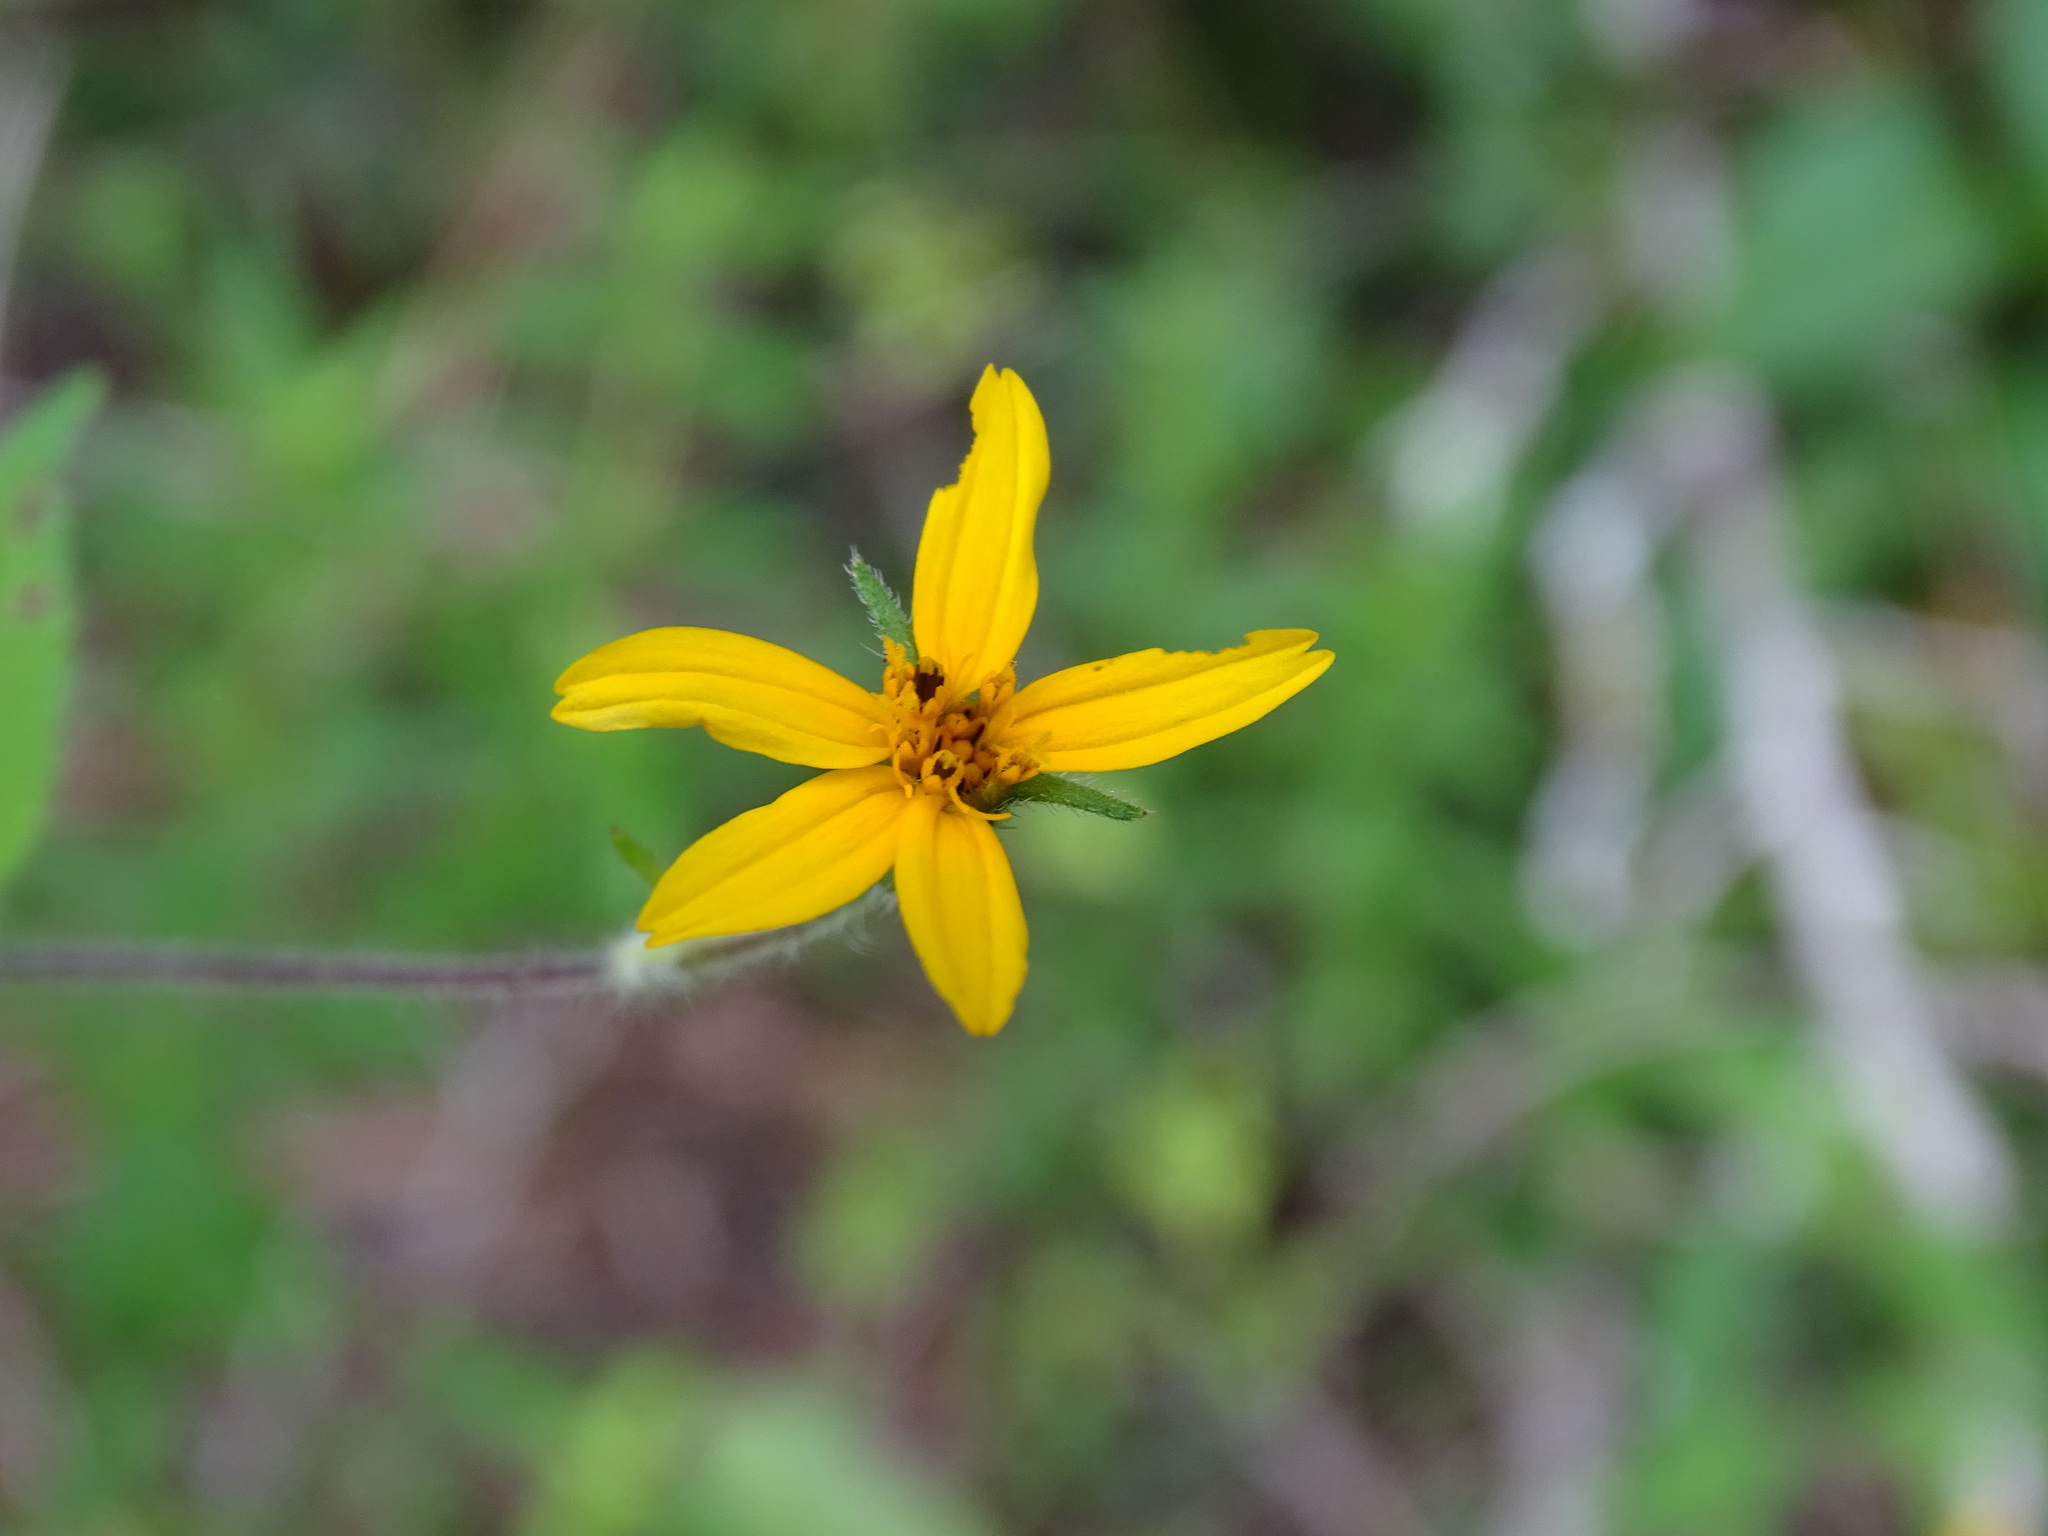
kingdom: Plantae
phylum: Tracheophyta
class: Magnoliopsida
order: Asterales
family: Asteraceae
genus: Wedelia
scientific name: Wedelia acapulcensis
